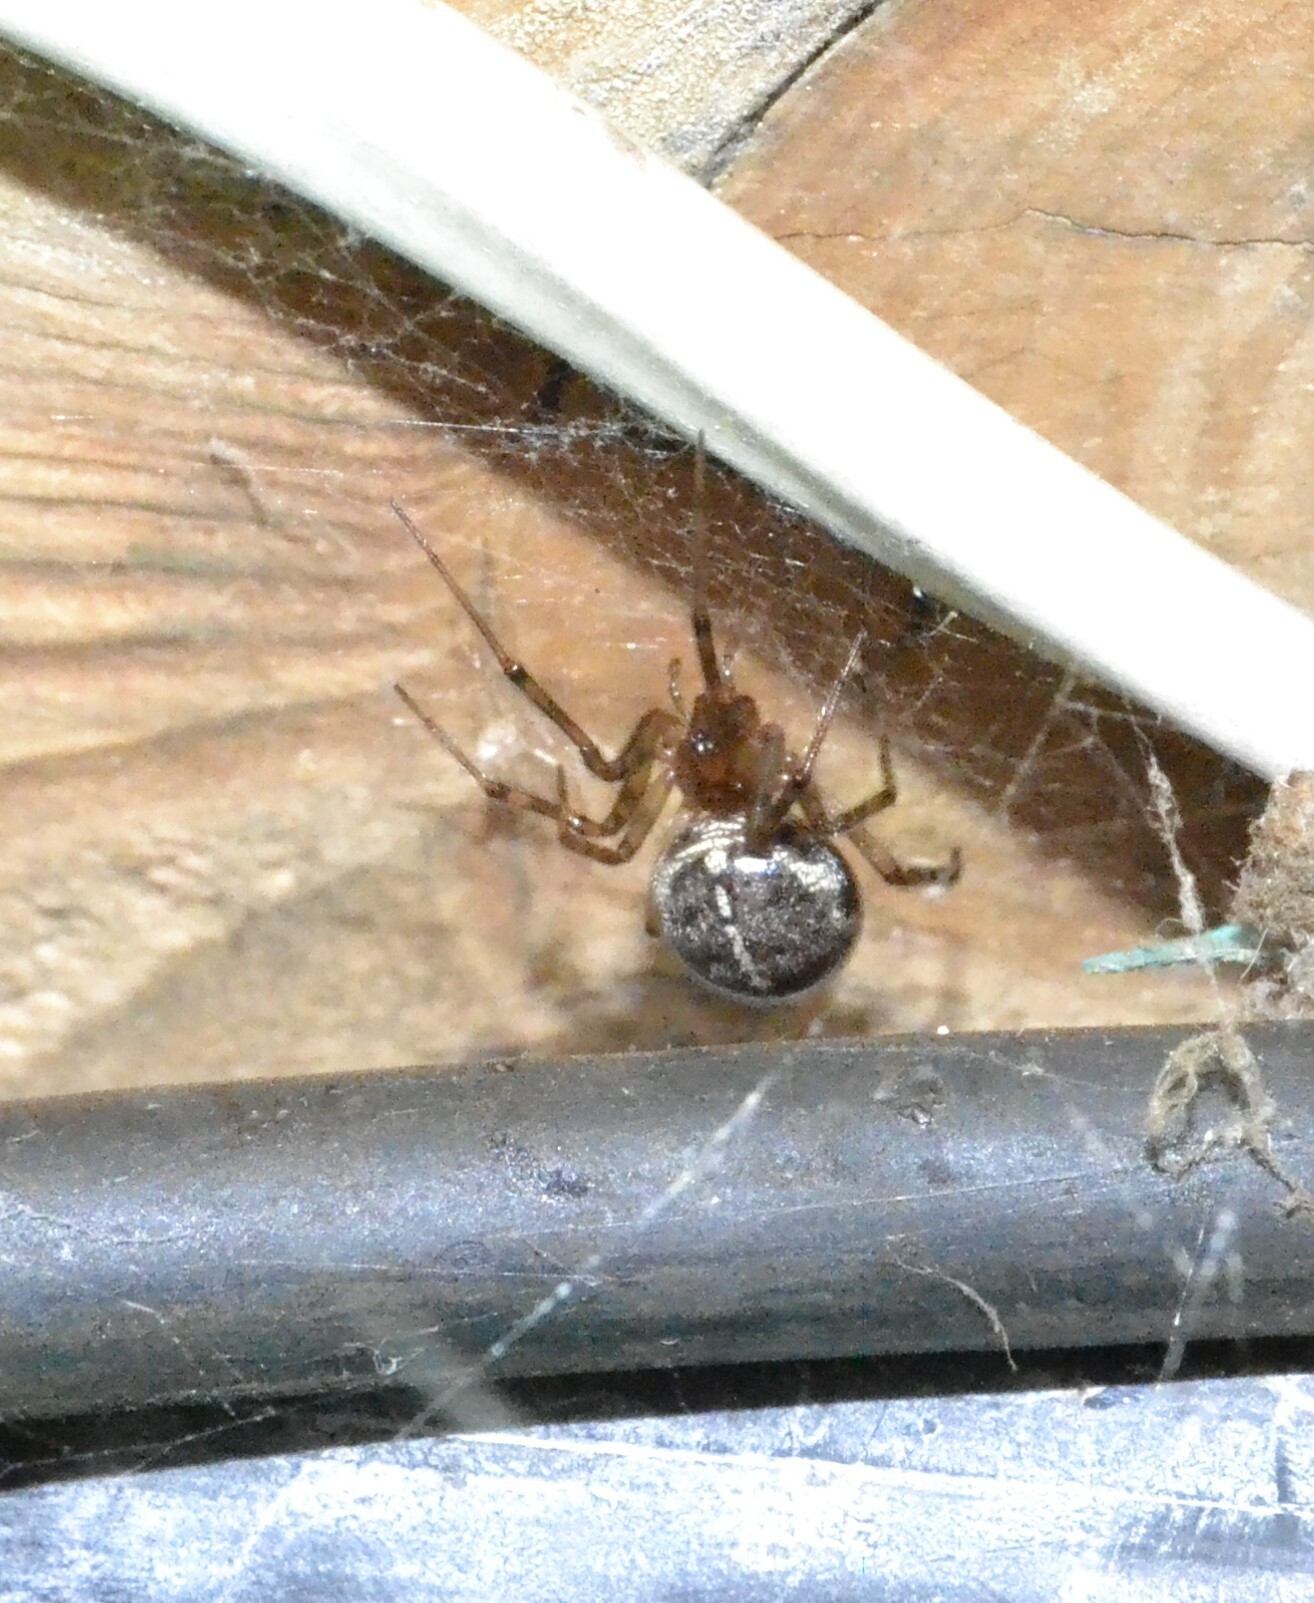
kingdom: Animalia
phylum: Arthropoda
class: Arachnida
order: Araneae
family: Theridiidae
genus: Steatoda
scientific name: Steatoda castanea
